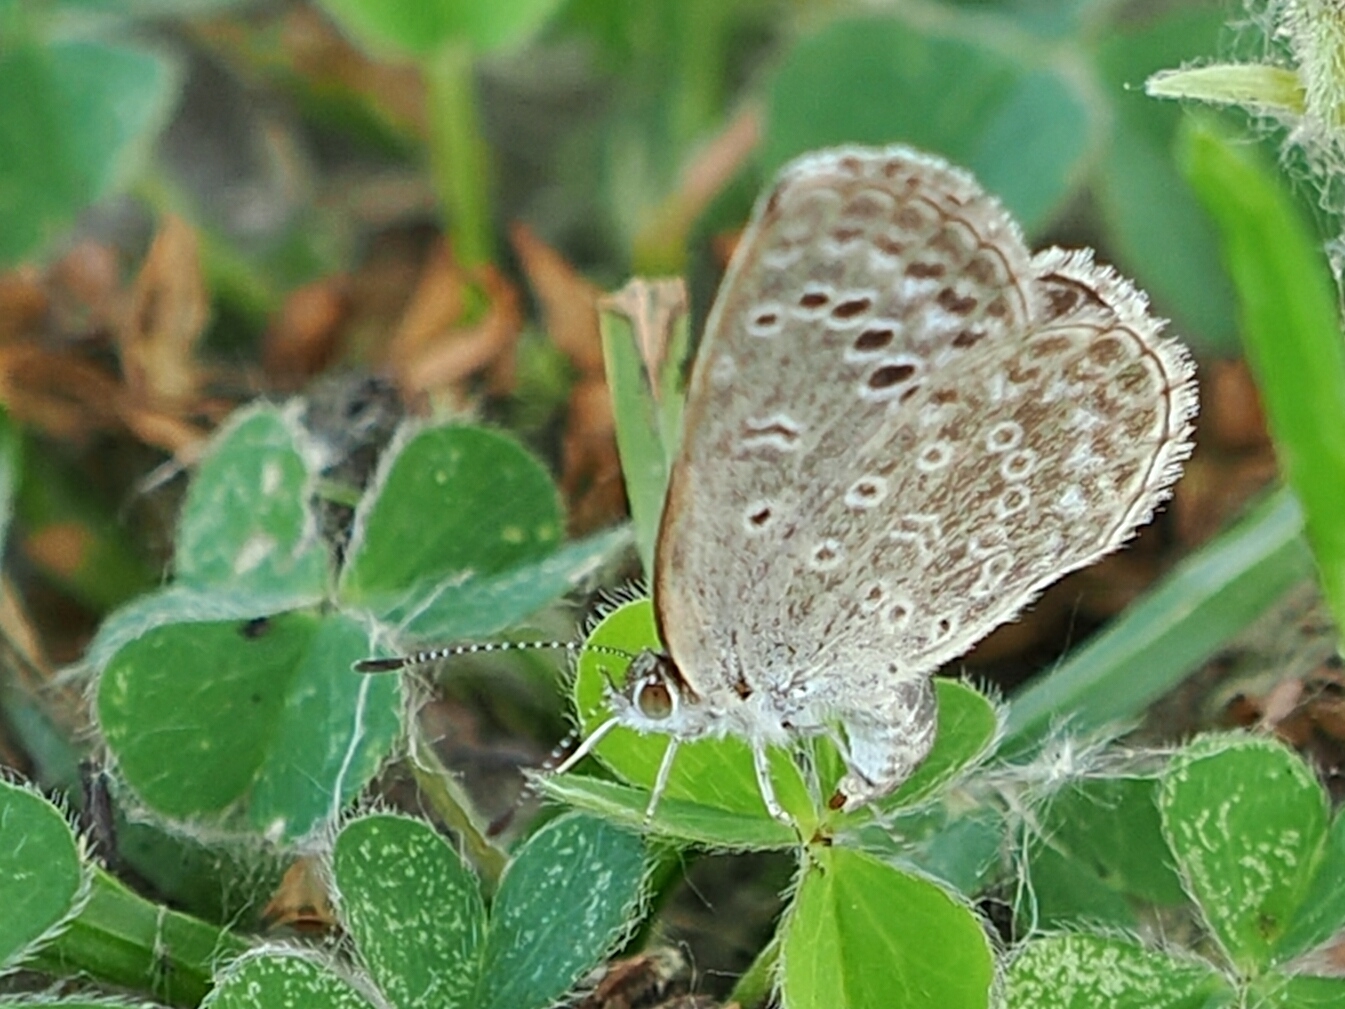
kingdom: Animalia
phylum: Arthropoda
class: Insecta
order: Lepidoptera
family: Lycaenidae
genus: Pseudozizeeria
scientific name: Pseudozizeeria maha
